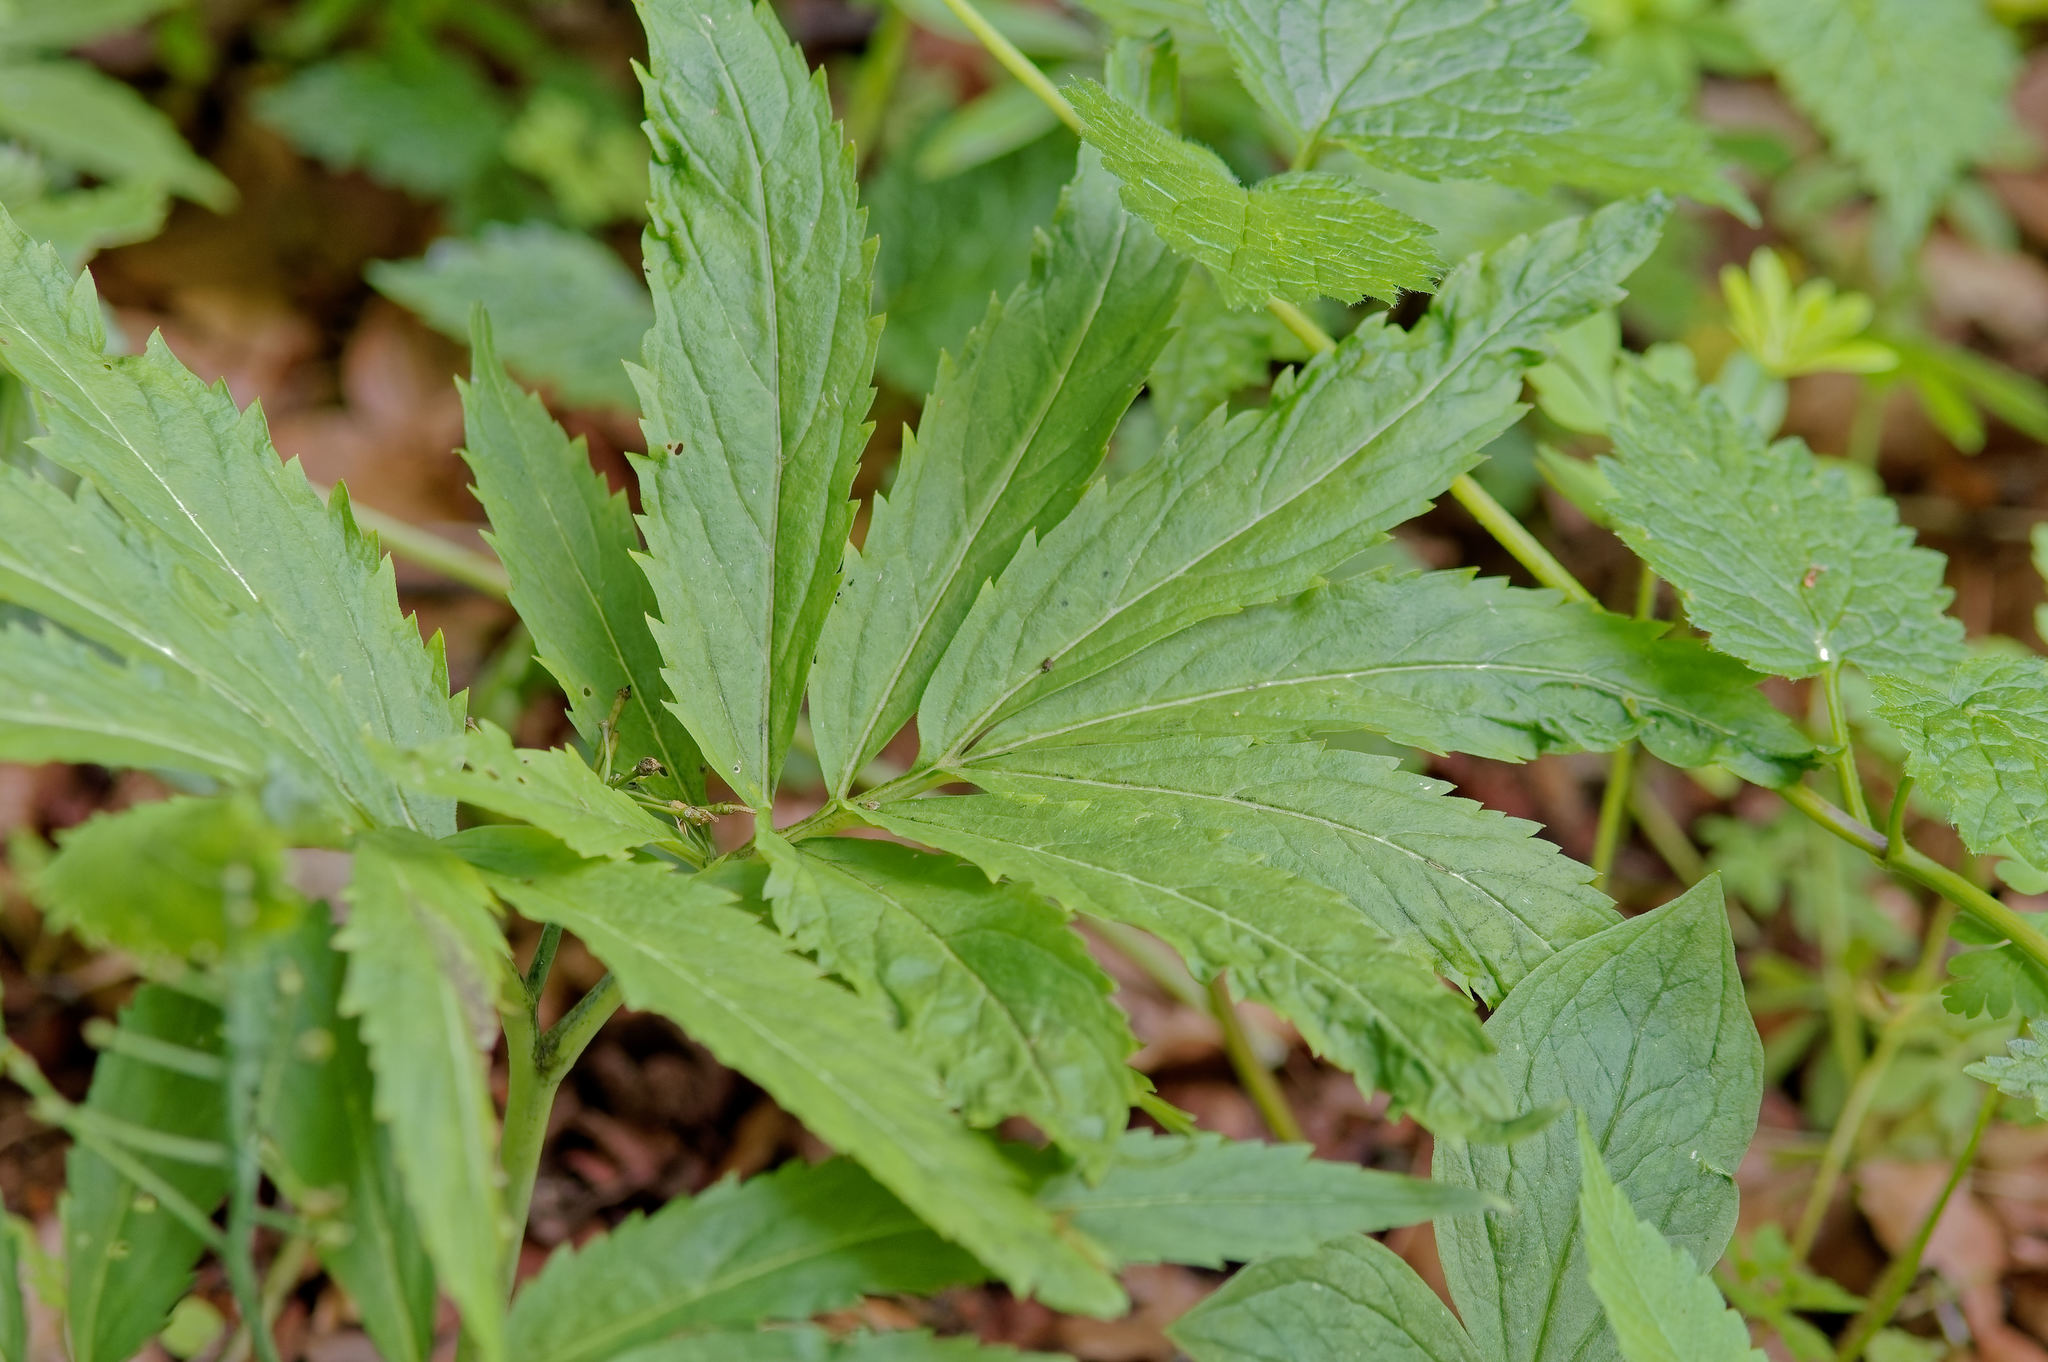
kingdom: Plantae
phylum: Tracheophyta
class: Magnoliopsida
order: Brassicales
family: Brassicaceae
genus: Cardamine
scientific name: Cardamine heptaphylla
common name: Pinnate coralroot
